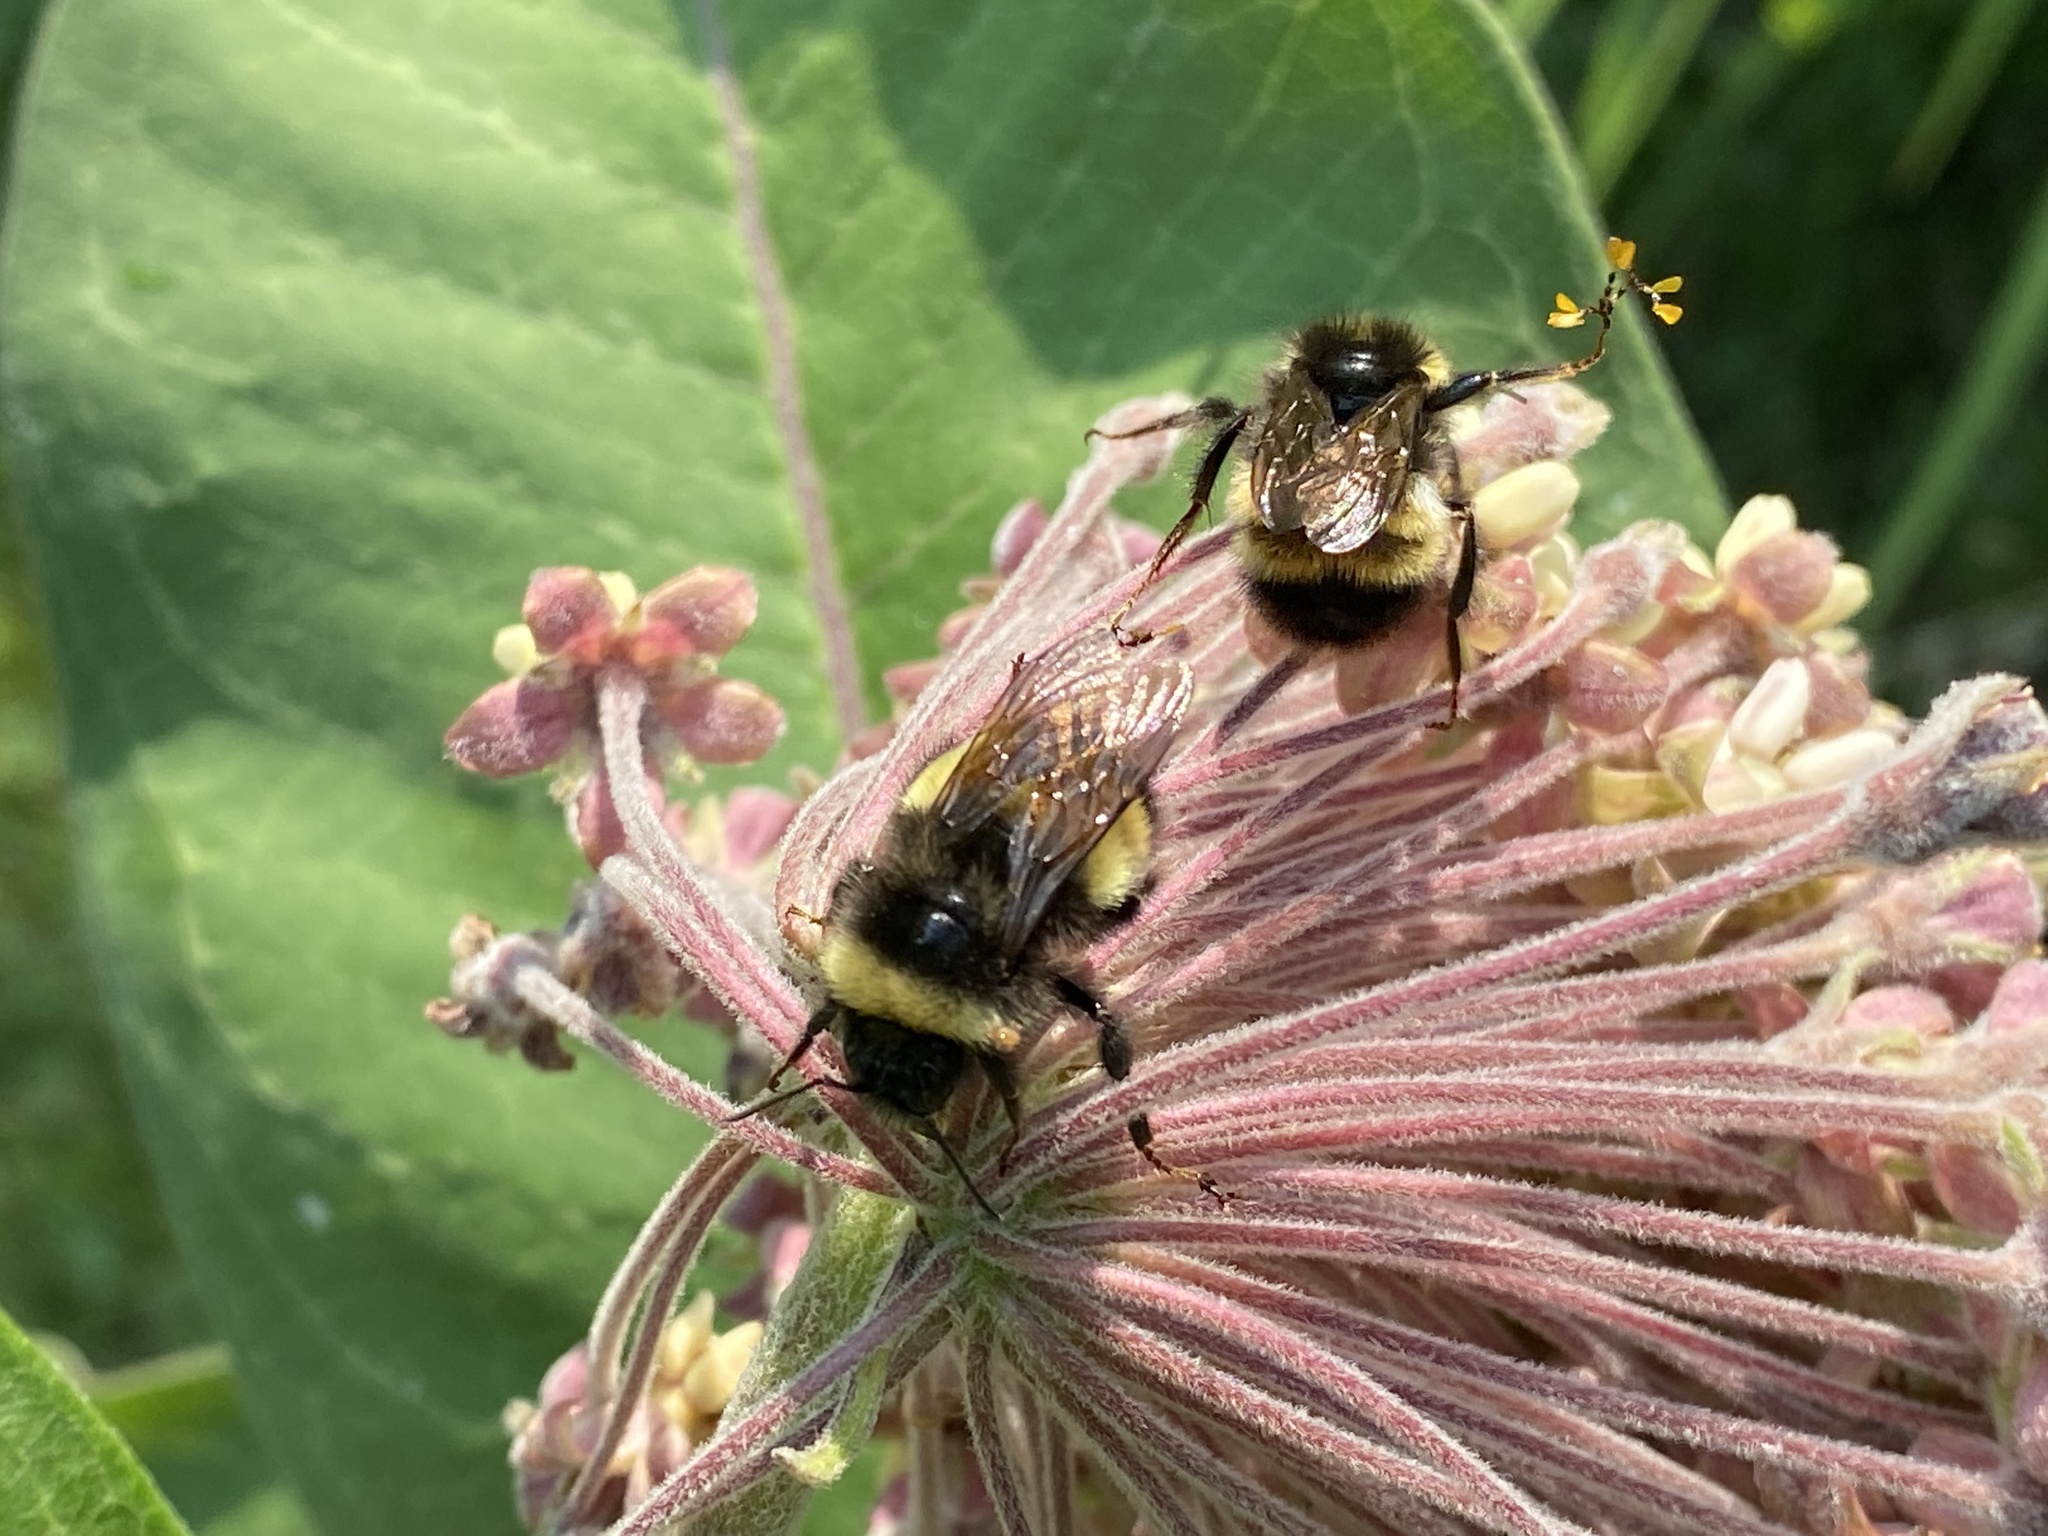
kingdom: Animalia
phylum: Arthropoda
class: Insecta
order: Hymenoptera
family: Apidae
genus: Bombus
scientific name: Bombus terricola
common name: Yellow-banded bumble bee
